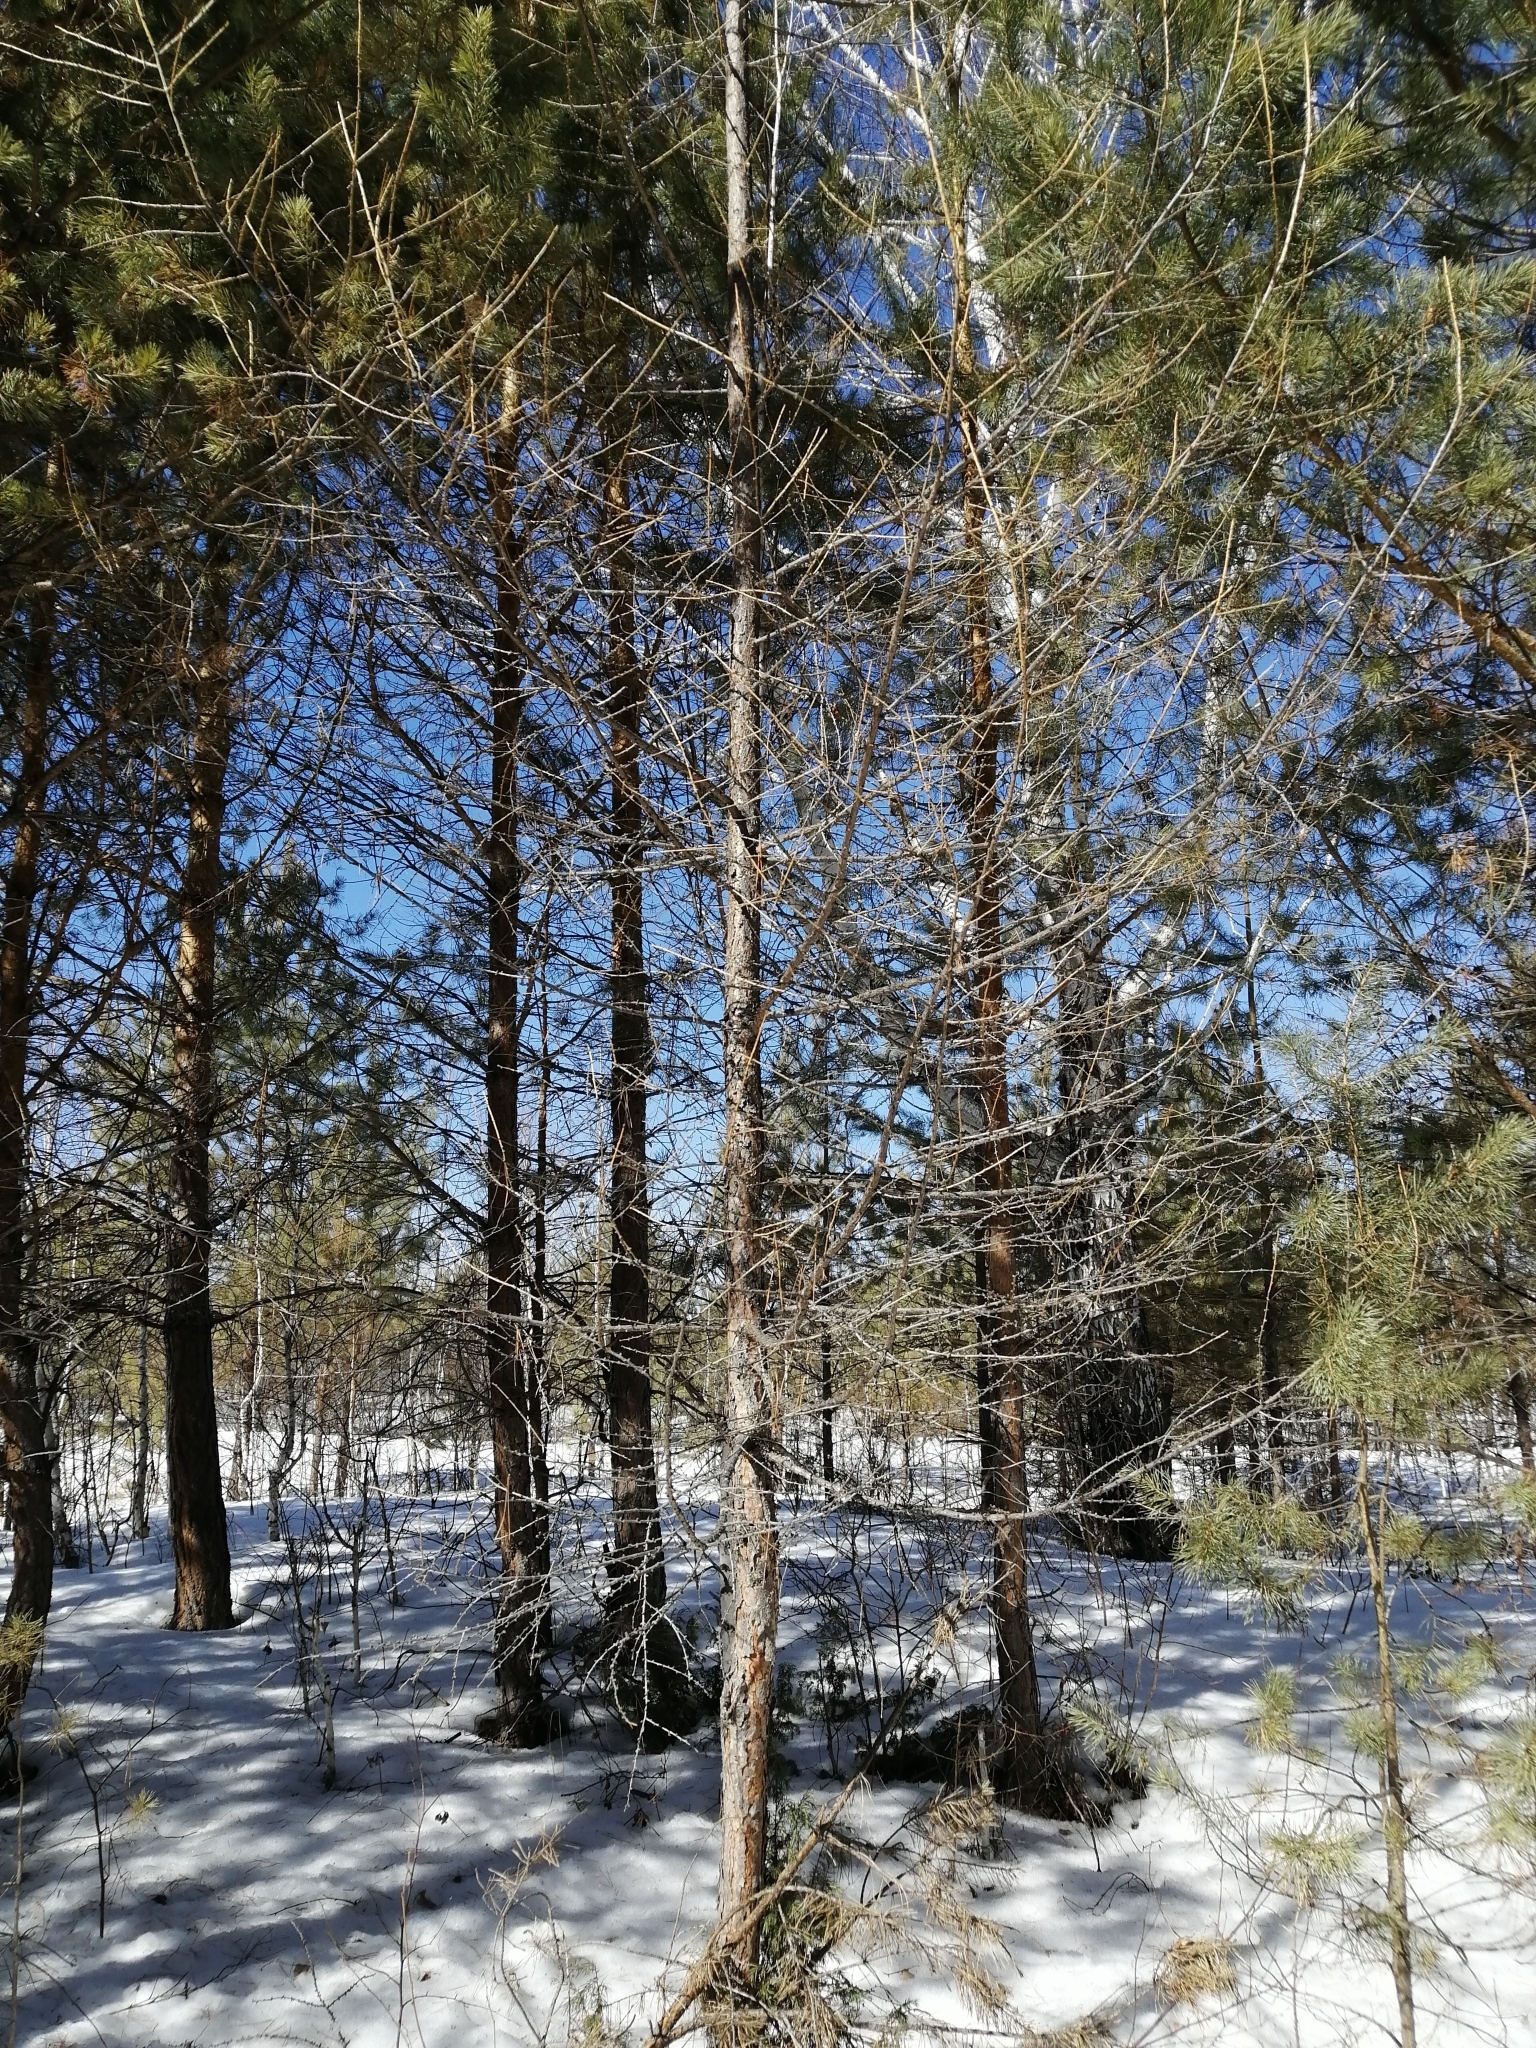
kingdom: Plantae
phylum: Tracheophyta
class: Pinopsida
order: Pinales
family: Pinaceae
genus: Larix
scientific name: Larix sibirica
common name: Siberian larch
